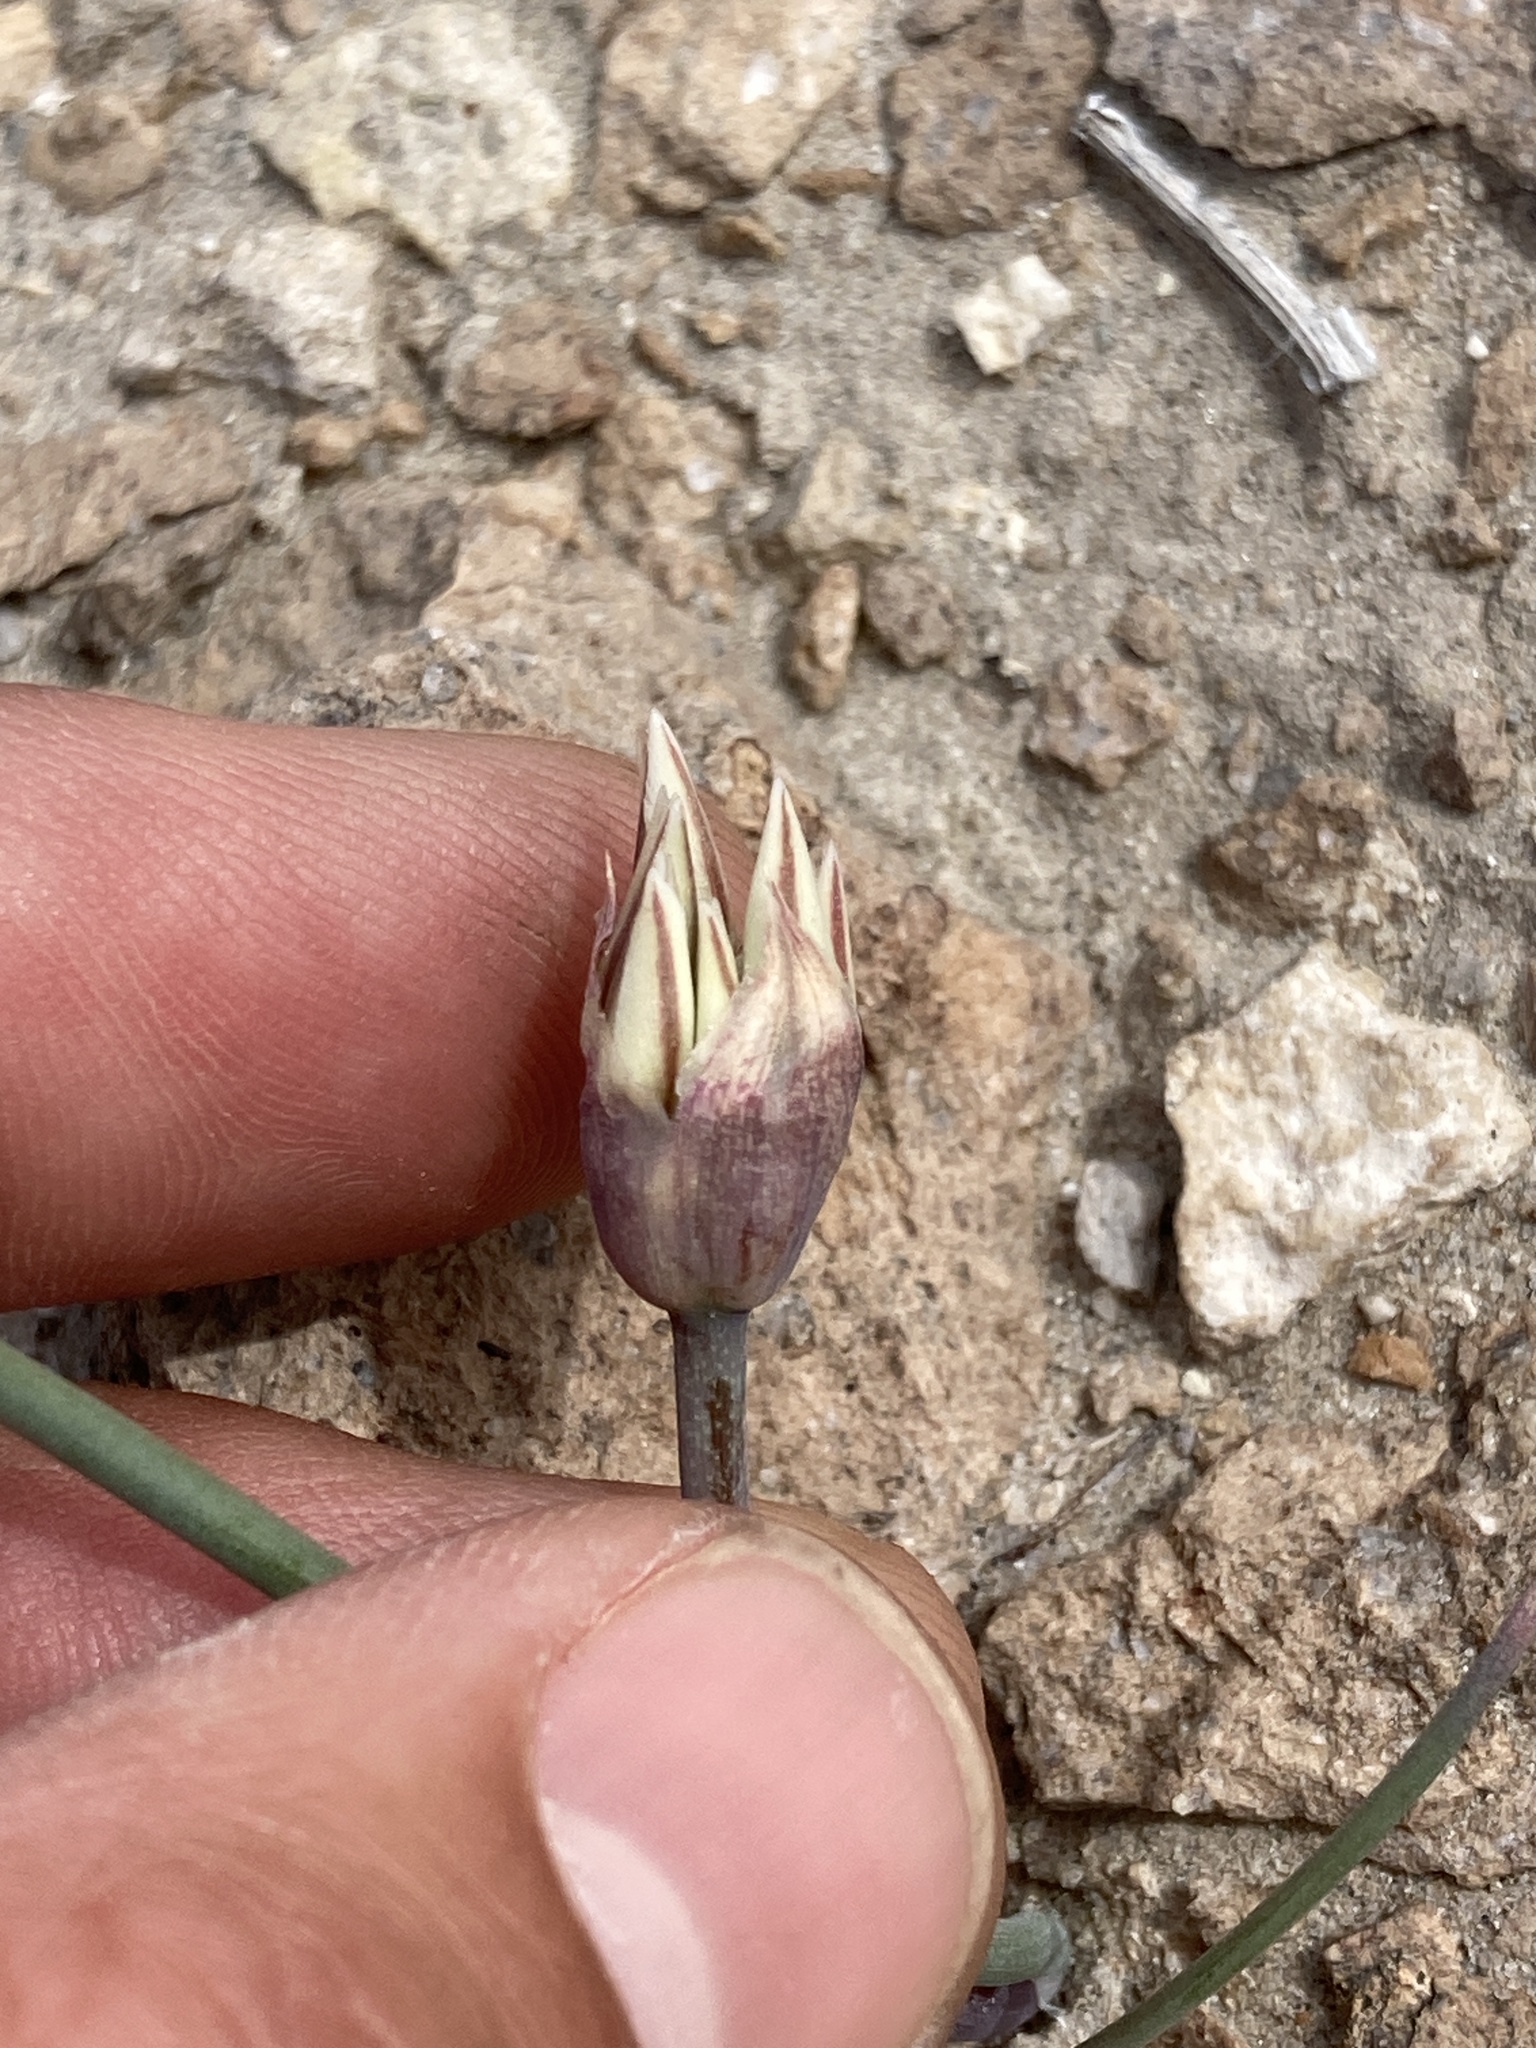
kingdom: Plantae
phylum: Tracheophyta
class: Liliopsida
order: Asparagales
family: Amaryllidaceae
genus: Allium
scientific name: Allium atrorubens
